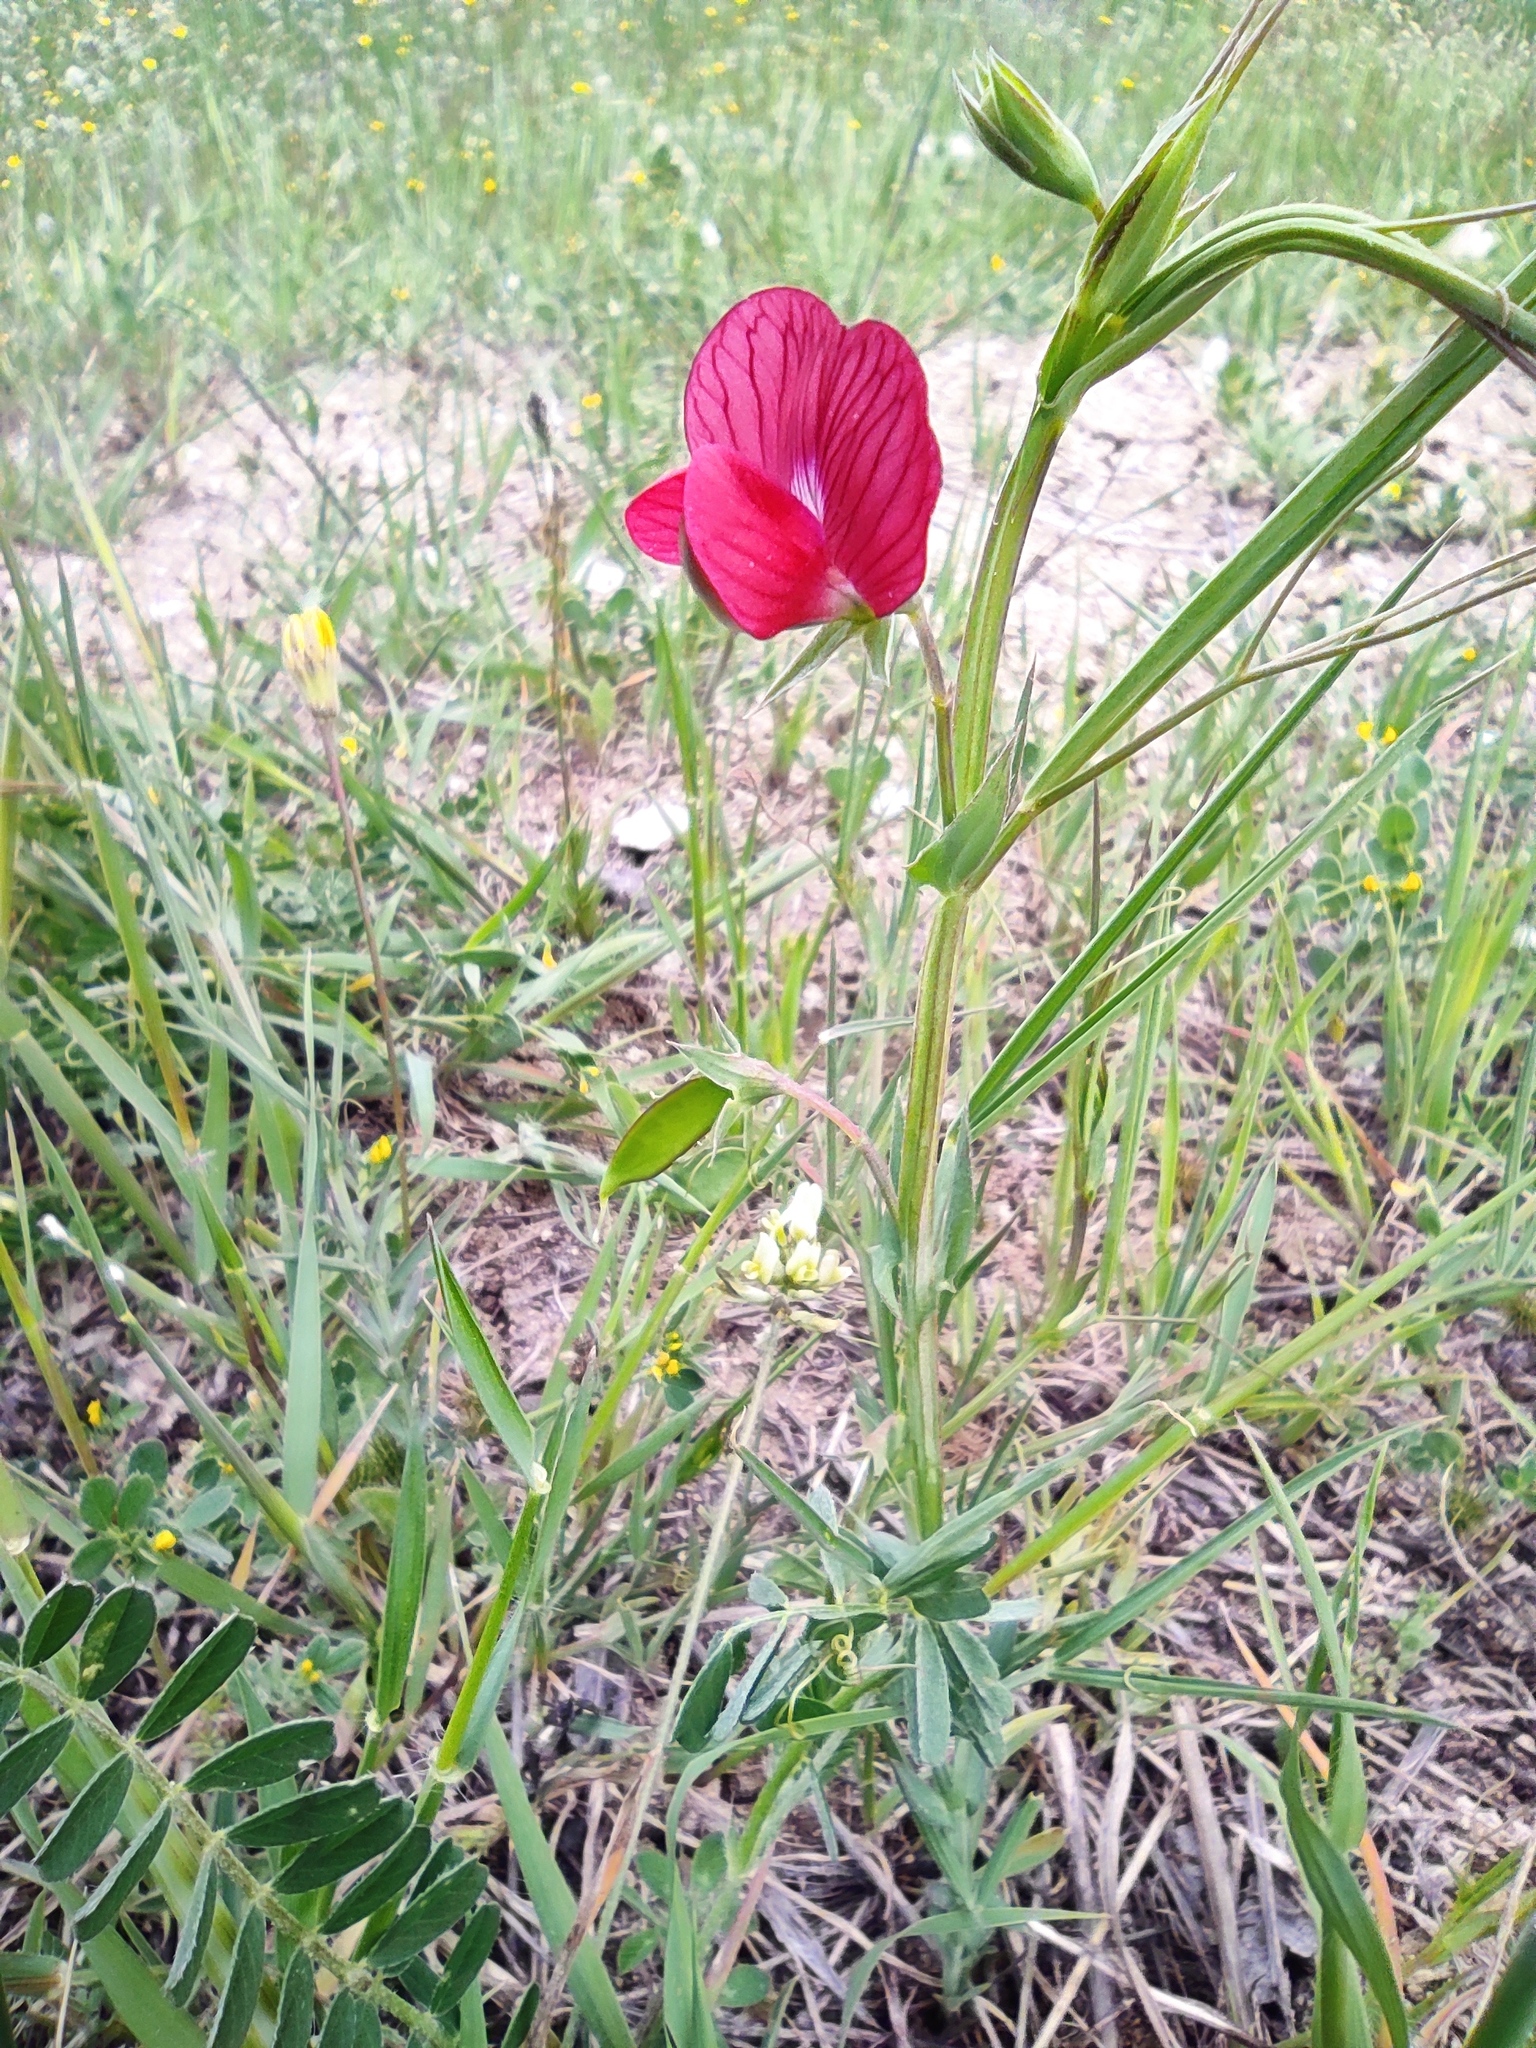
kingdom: Plantae
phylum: Tracheophyta
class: Magnoliopsida
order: Fabales
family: Fabaceae
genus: Lathyrus
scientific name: Lathyrus cicera
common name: Red vetchling
